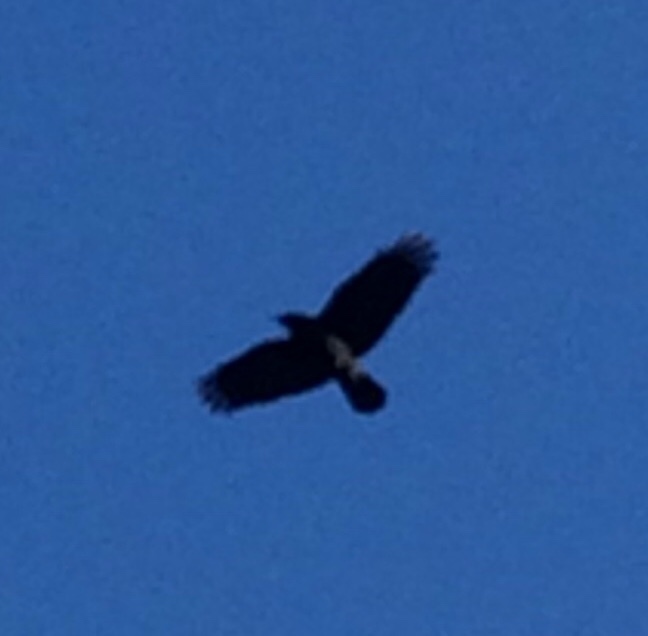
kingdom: Animalia
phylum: Chordata
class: Aves
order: Passeriformes
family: Corvidae
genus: Corvus
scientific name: Corvus brachyrhynchos
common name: American crow
